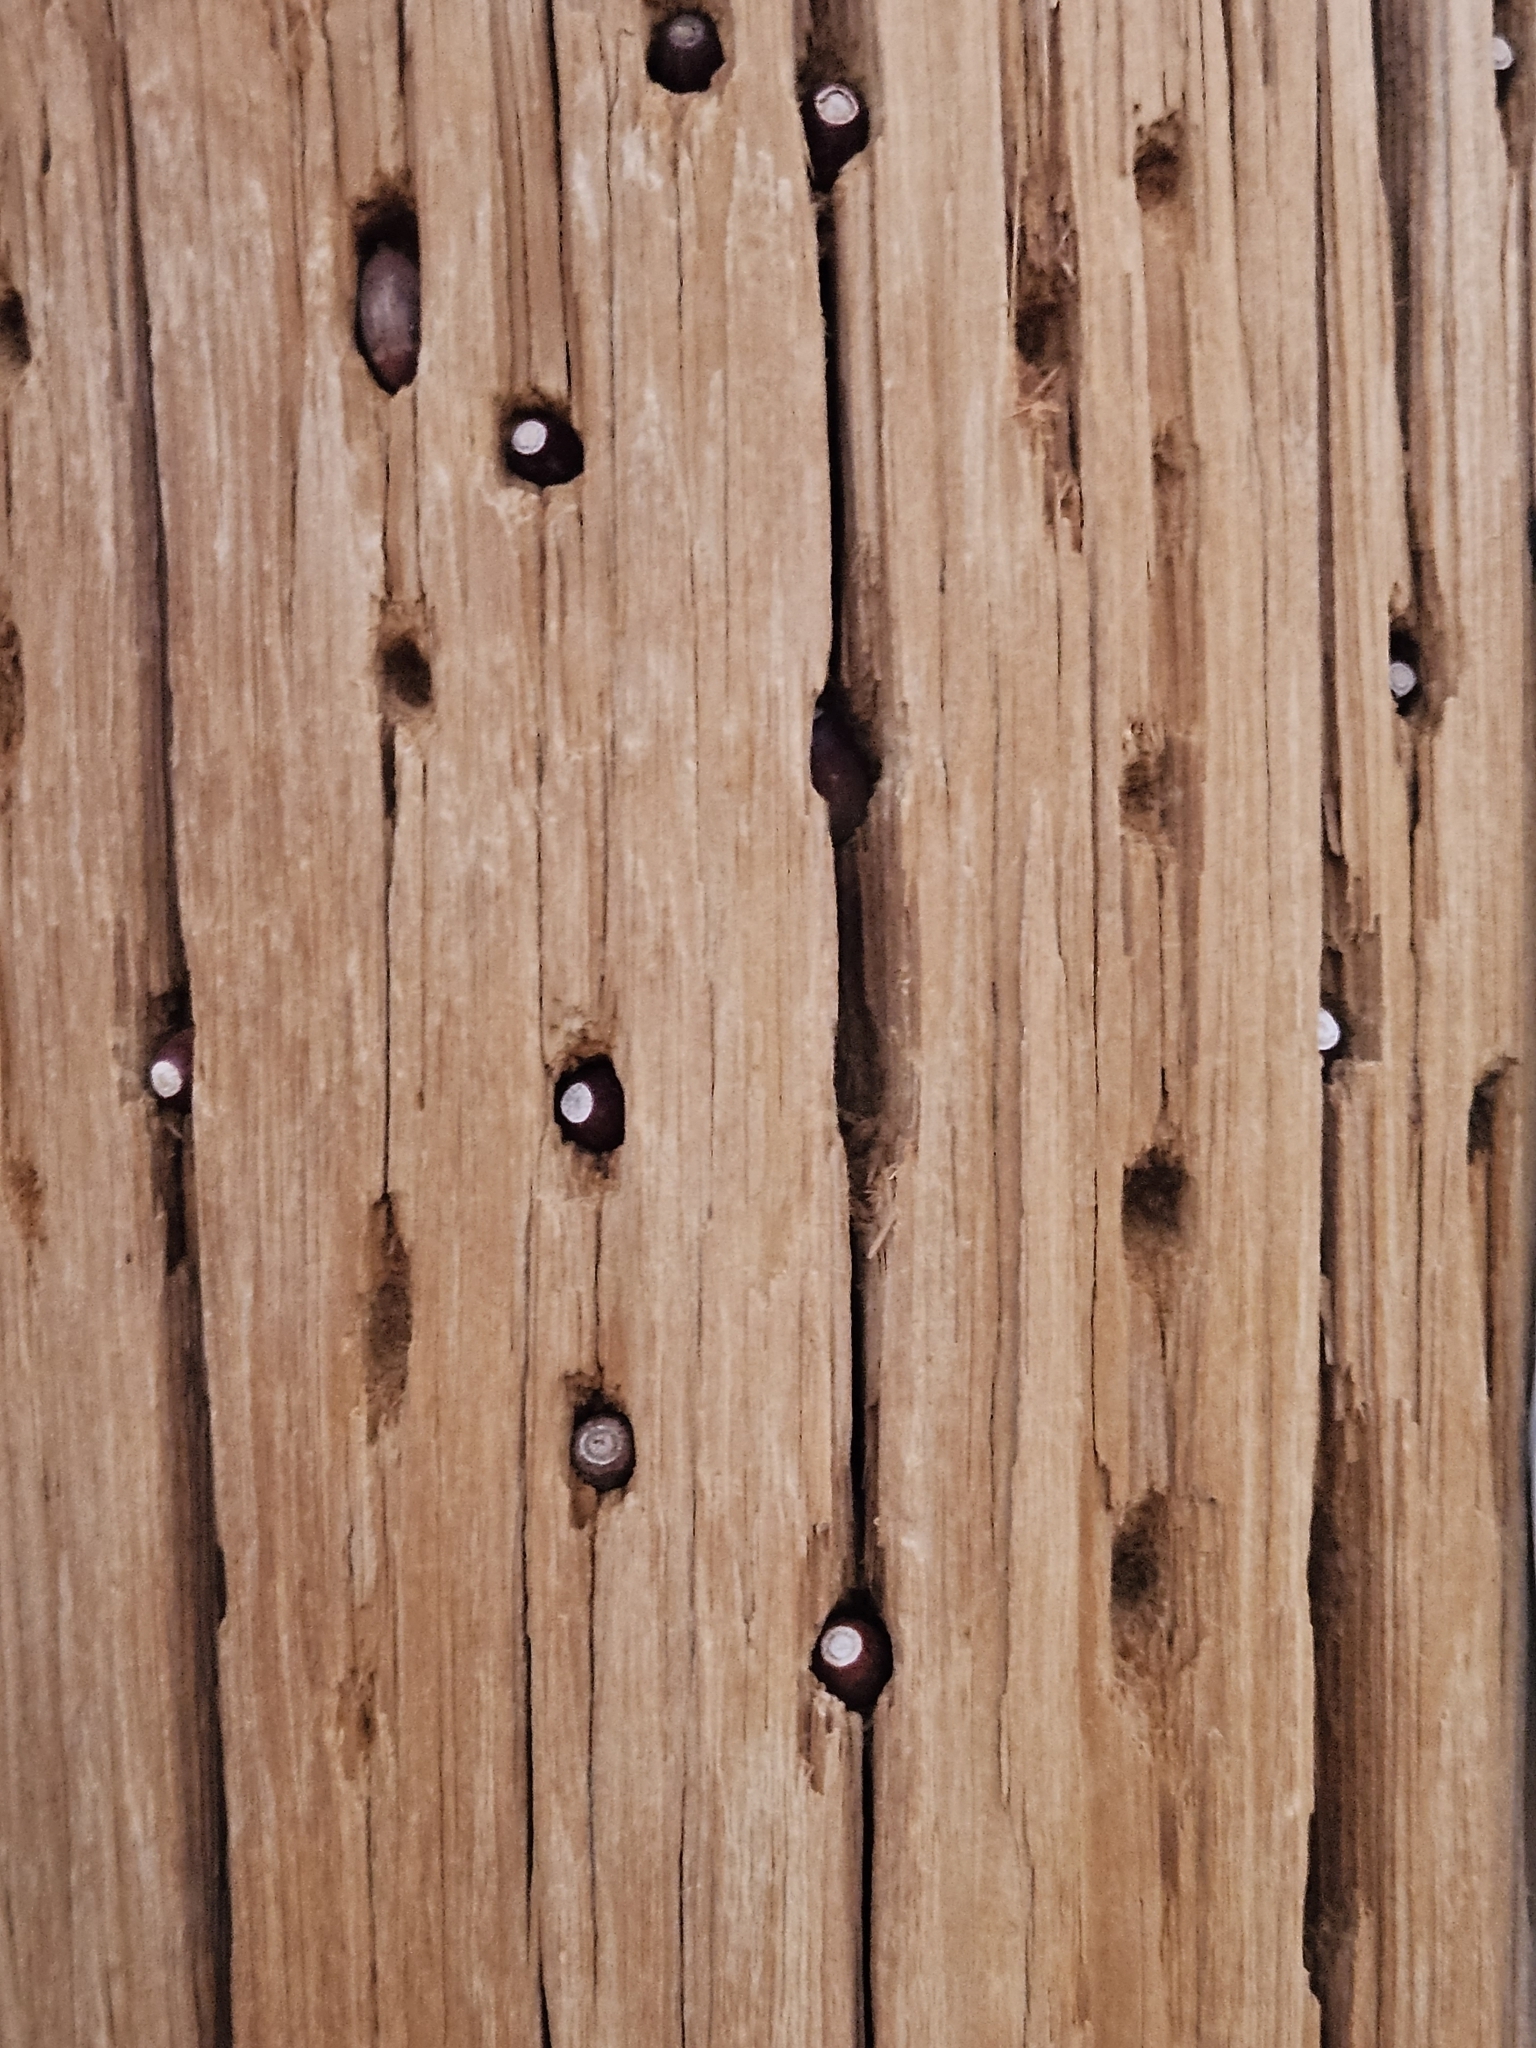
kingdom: Animalia
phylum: Chordata
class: Aves
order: Piciformes
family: Picidae
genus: Melanerpes
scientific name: Melanerpes formicivorus
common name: Acorn woodpecker
